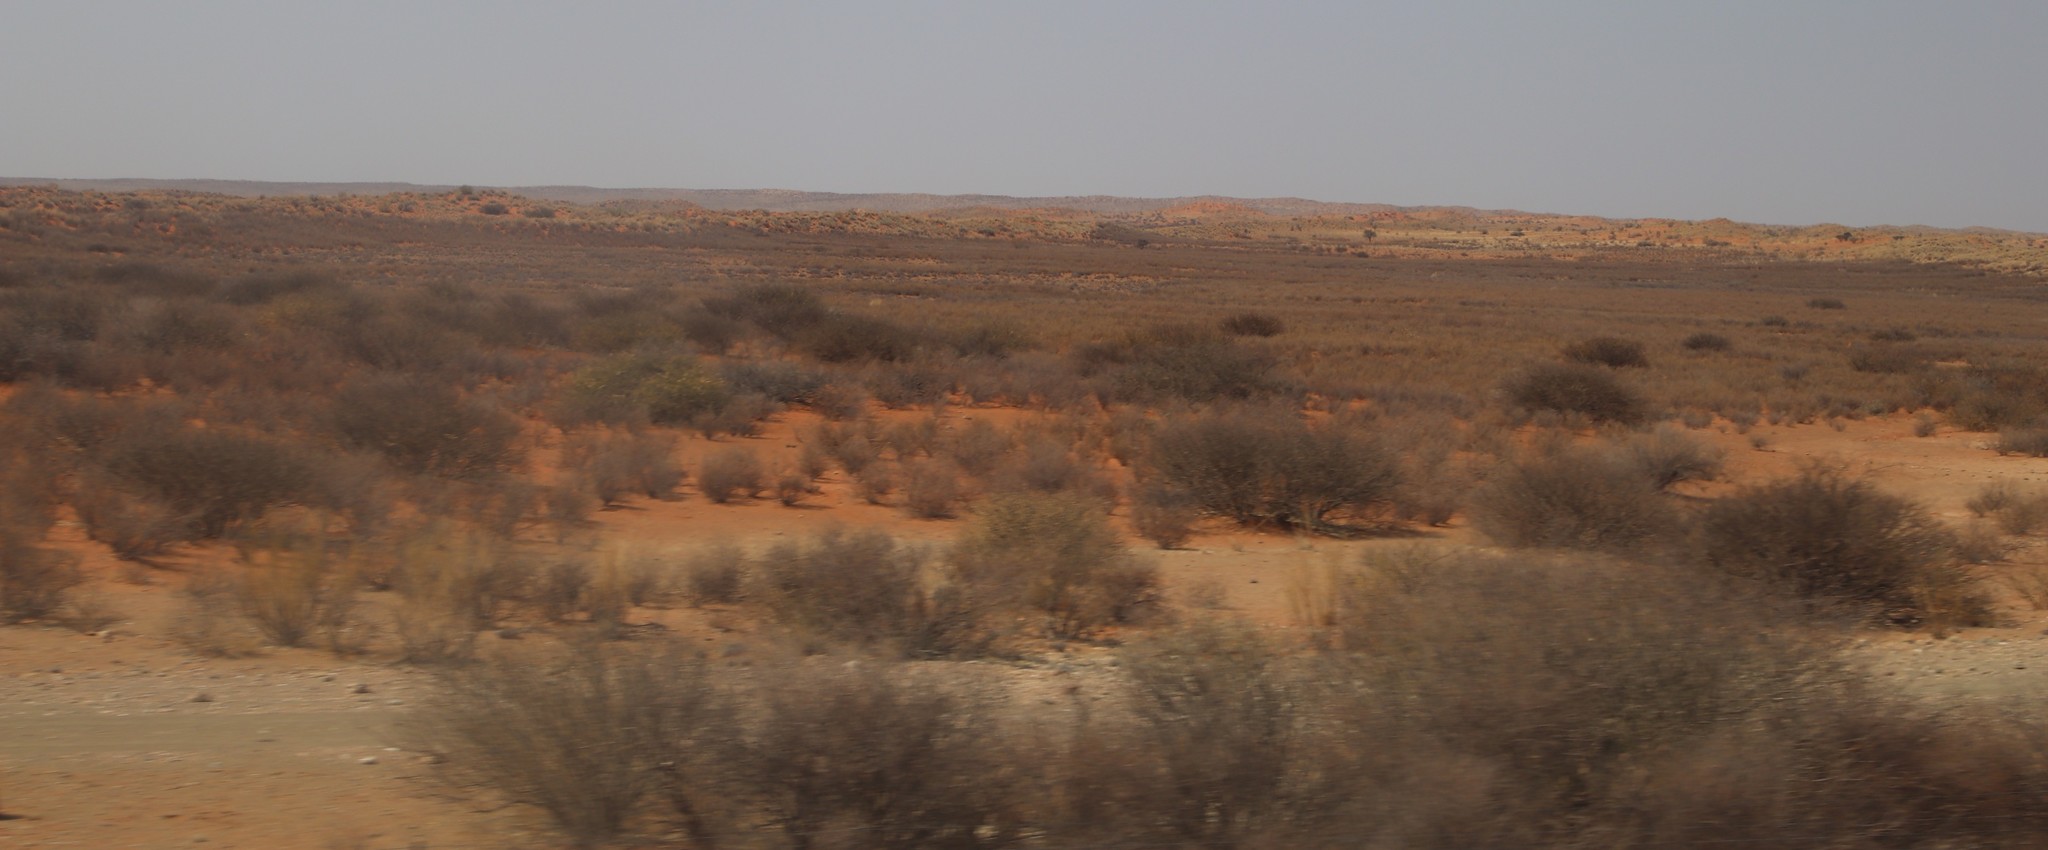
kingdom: Plantae
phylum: Tracheophyta
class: Magnoliopsida
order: Lamiales
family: Bignoniaceae
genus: Rhigozum
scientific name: Rhigozum trichotomum
